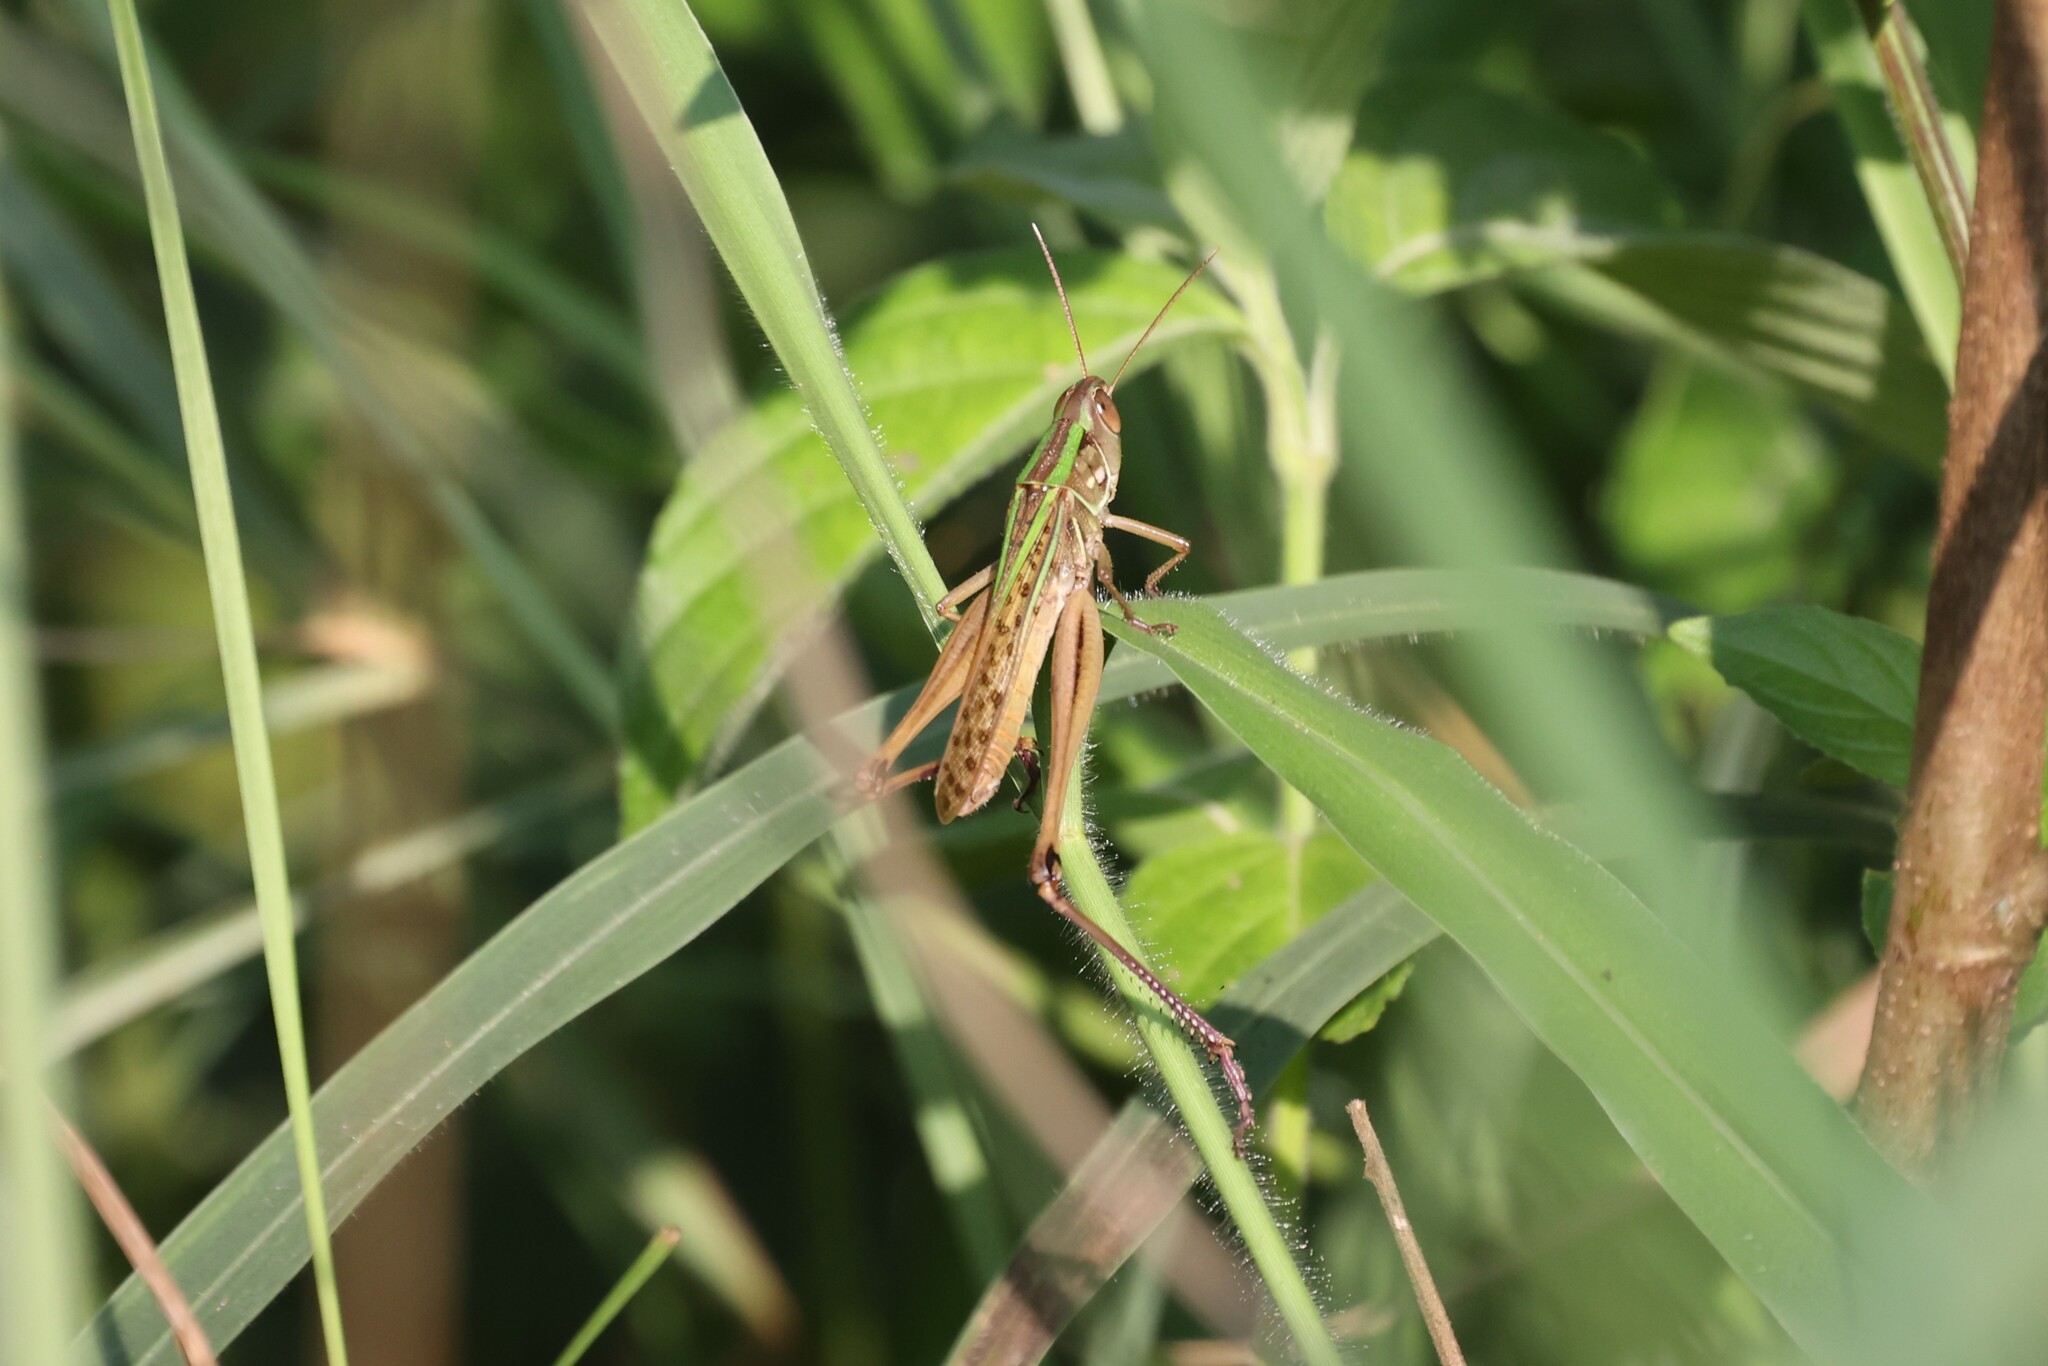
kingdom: Animalia
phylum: Arthropoda
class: Insecta
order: Orthoptera
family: Acrididae
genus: Cataloipus
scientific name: Cataloipus oberthuri
